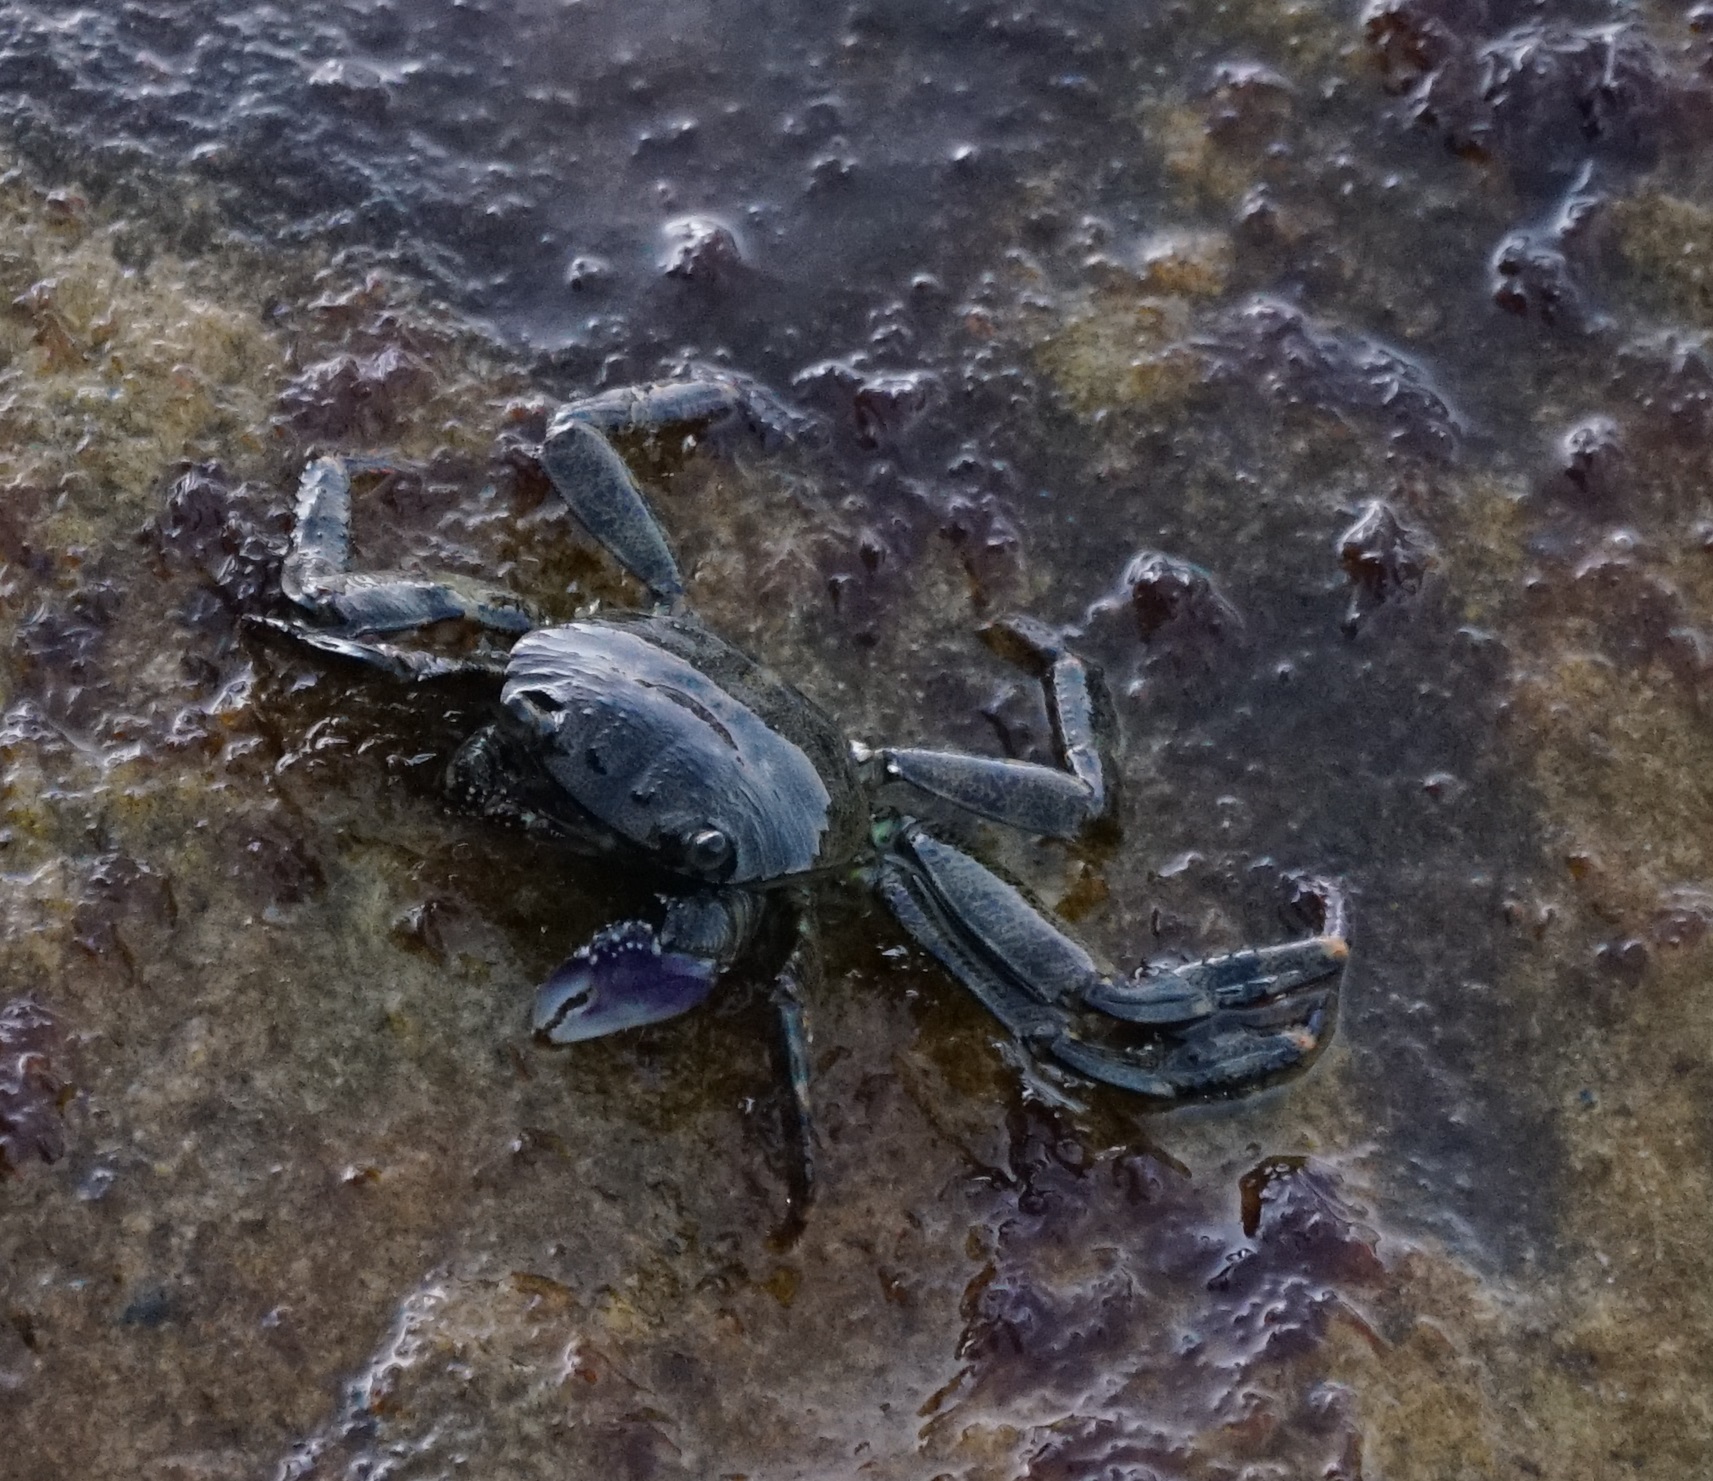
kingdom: Animalia
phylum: Arthropoda
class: Malacostraca
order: Decapoda
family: Grapsidae
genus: Leptograpsus
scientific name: Leptograpsus variegatus
